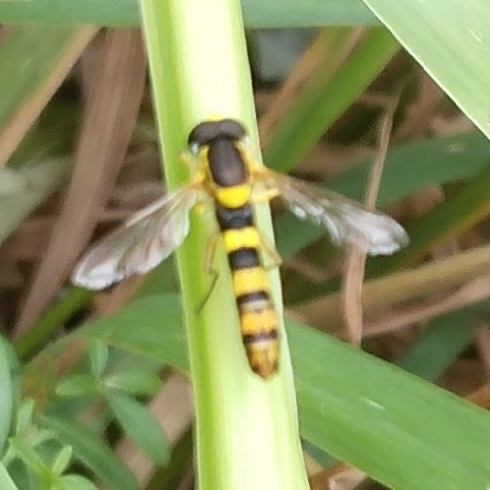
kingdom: Animalia
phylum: Arthropoda
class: Insecta
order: Diptera
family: Syrphidae
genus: Sphaerophoria
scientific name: Sphaerophoria scripta
